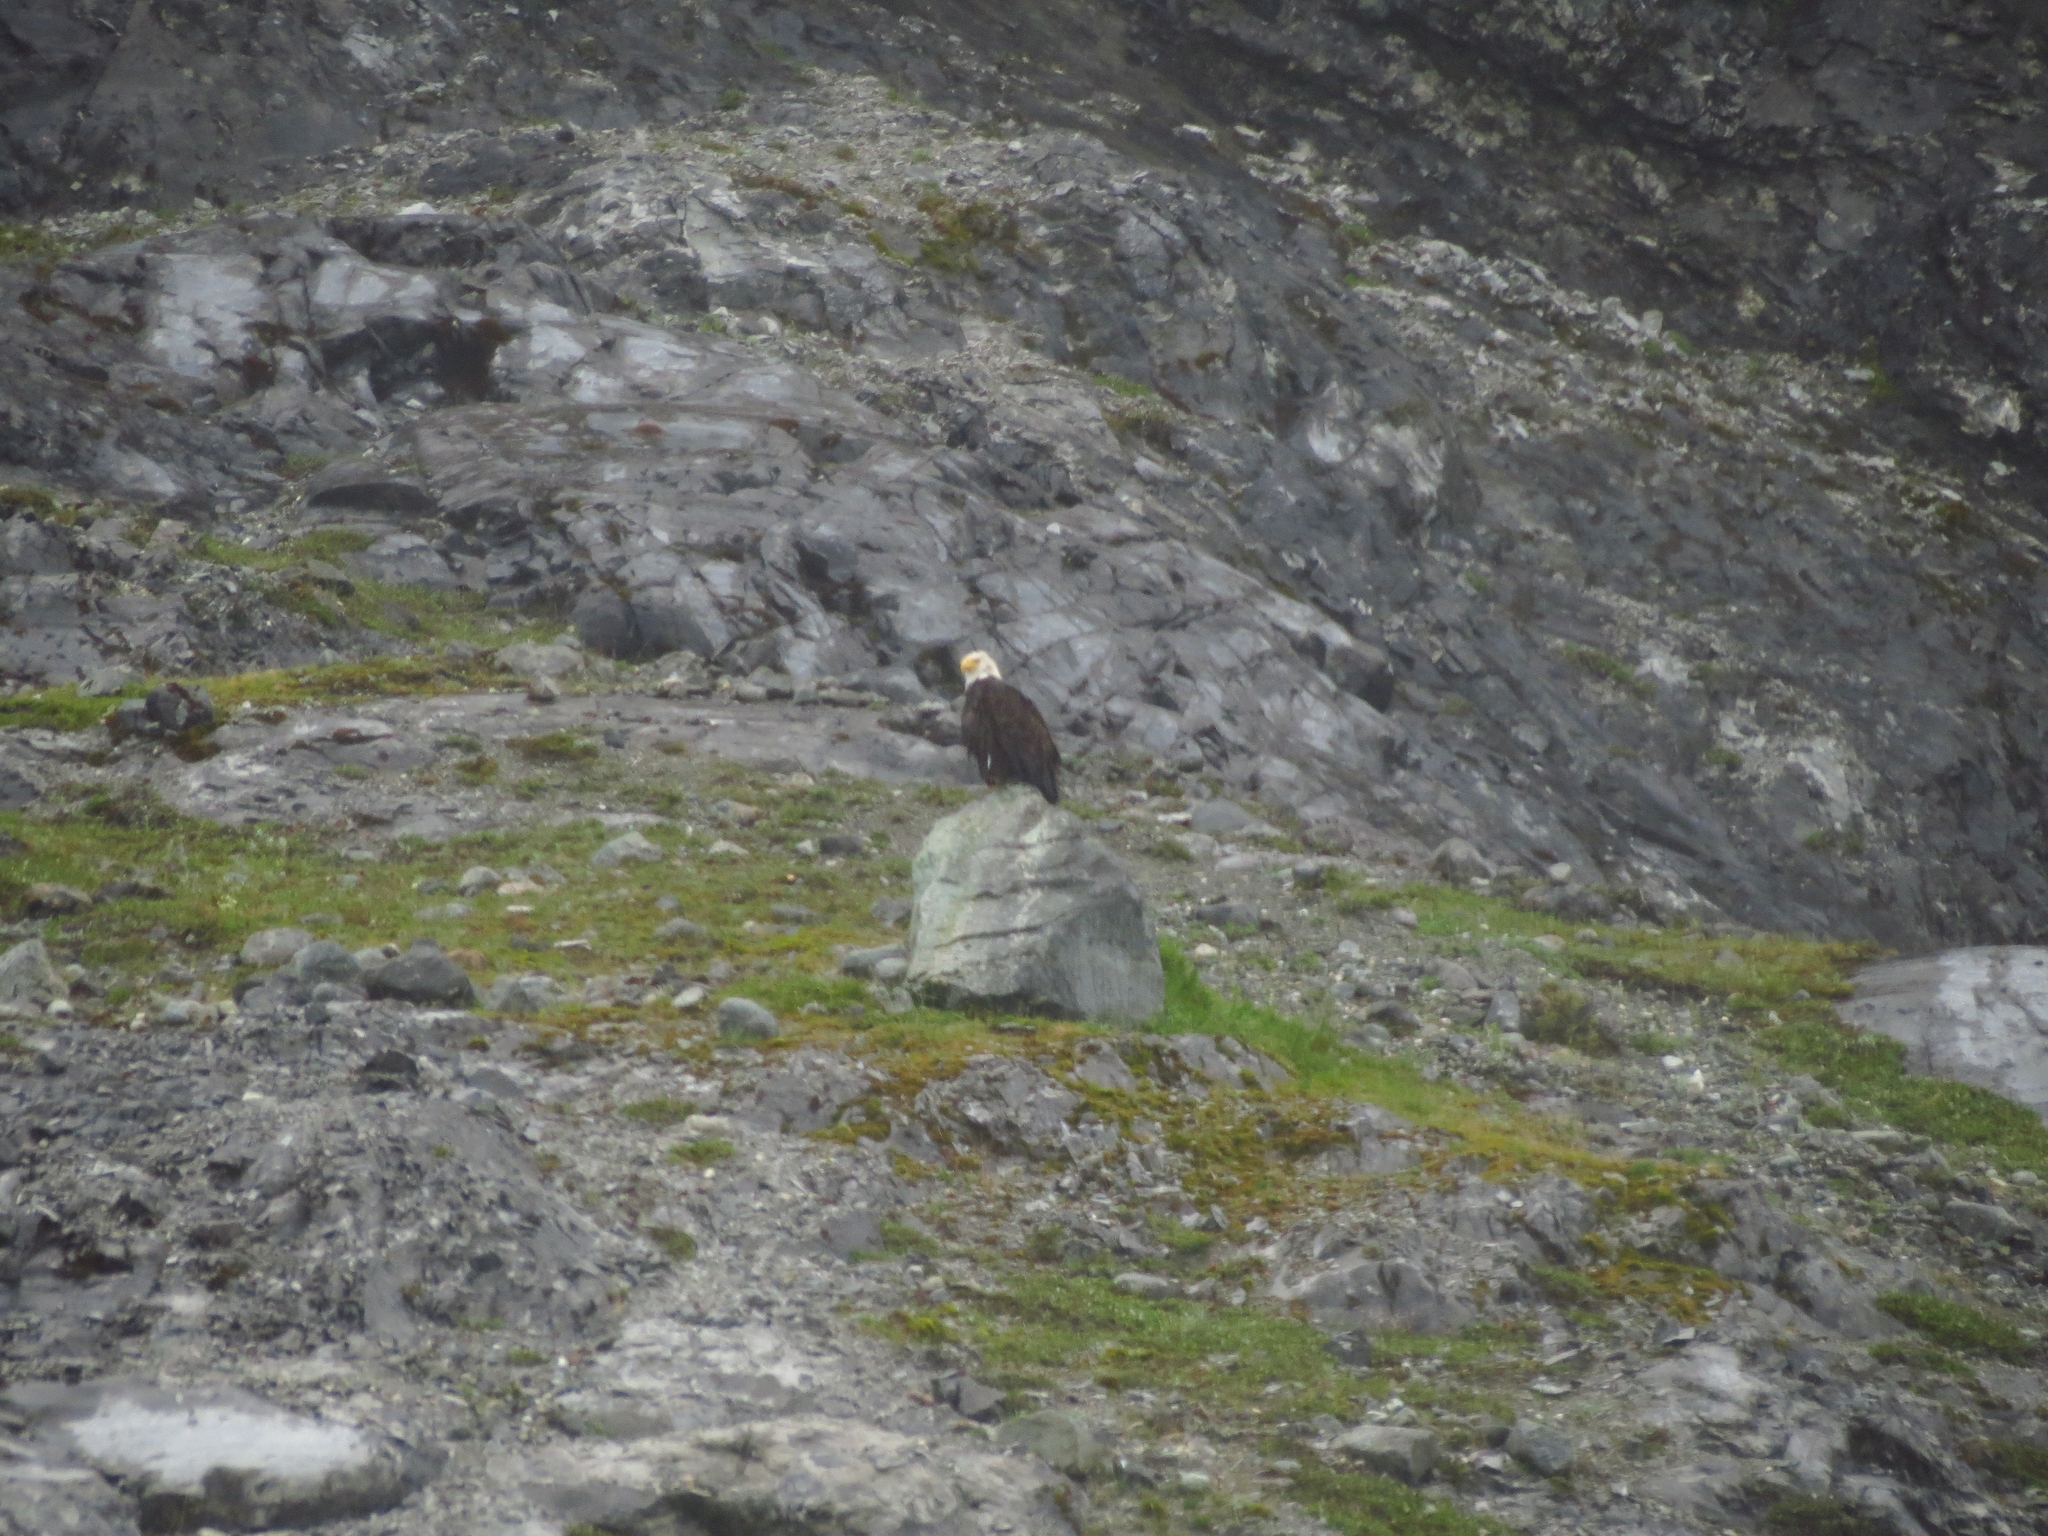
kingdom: Animalia
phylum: Chordata
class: Aves
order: Accipitriformes
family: Accipitridae
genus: Haliaeetus
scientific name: Haliaeetus leucocephalus
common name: Bald eagle
